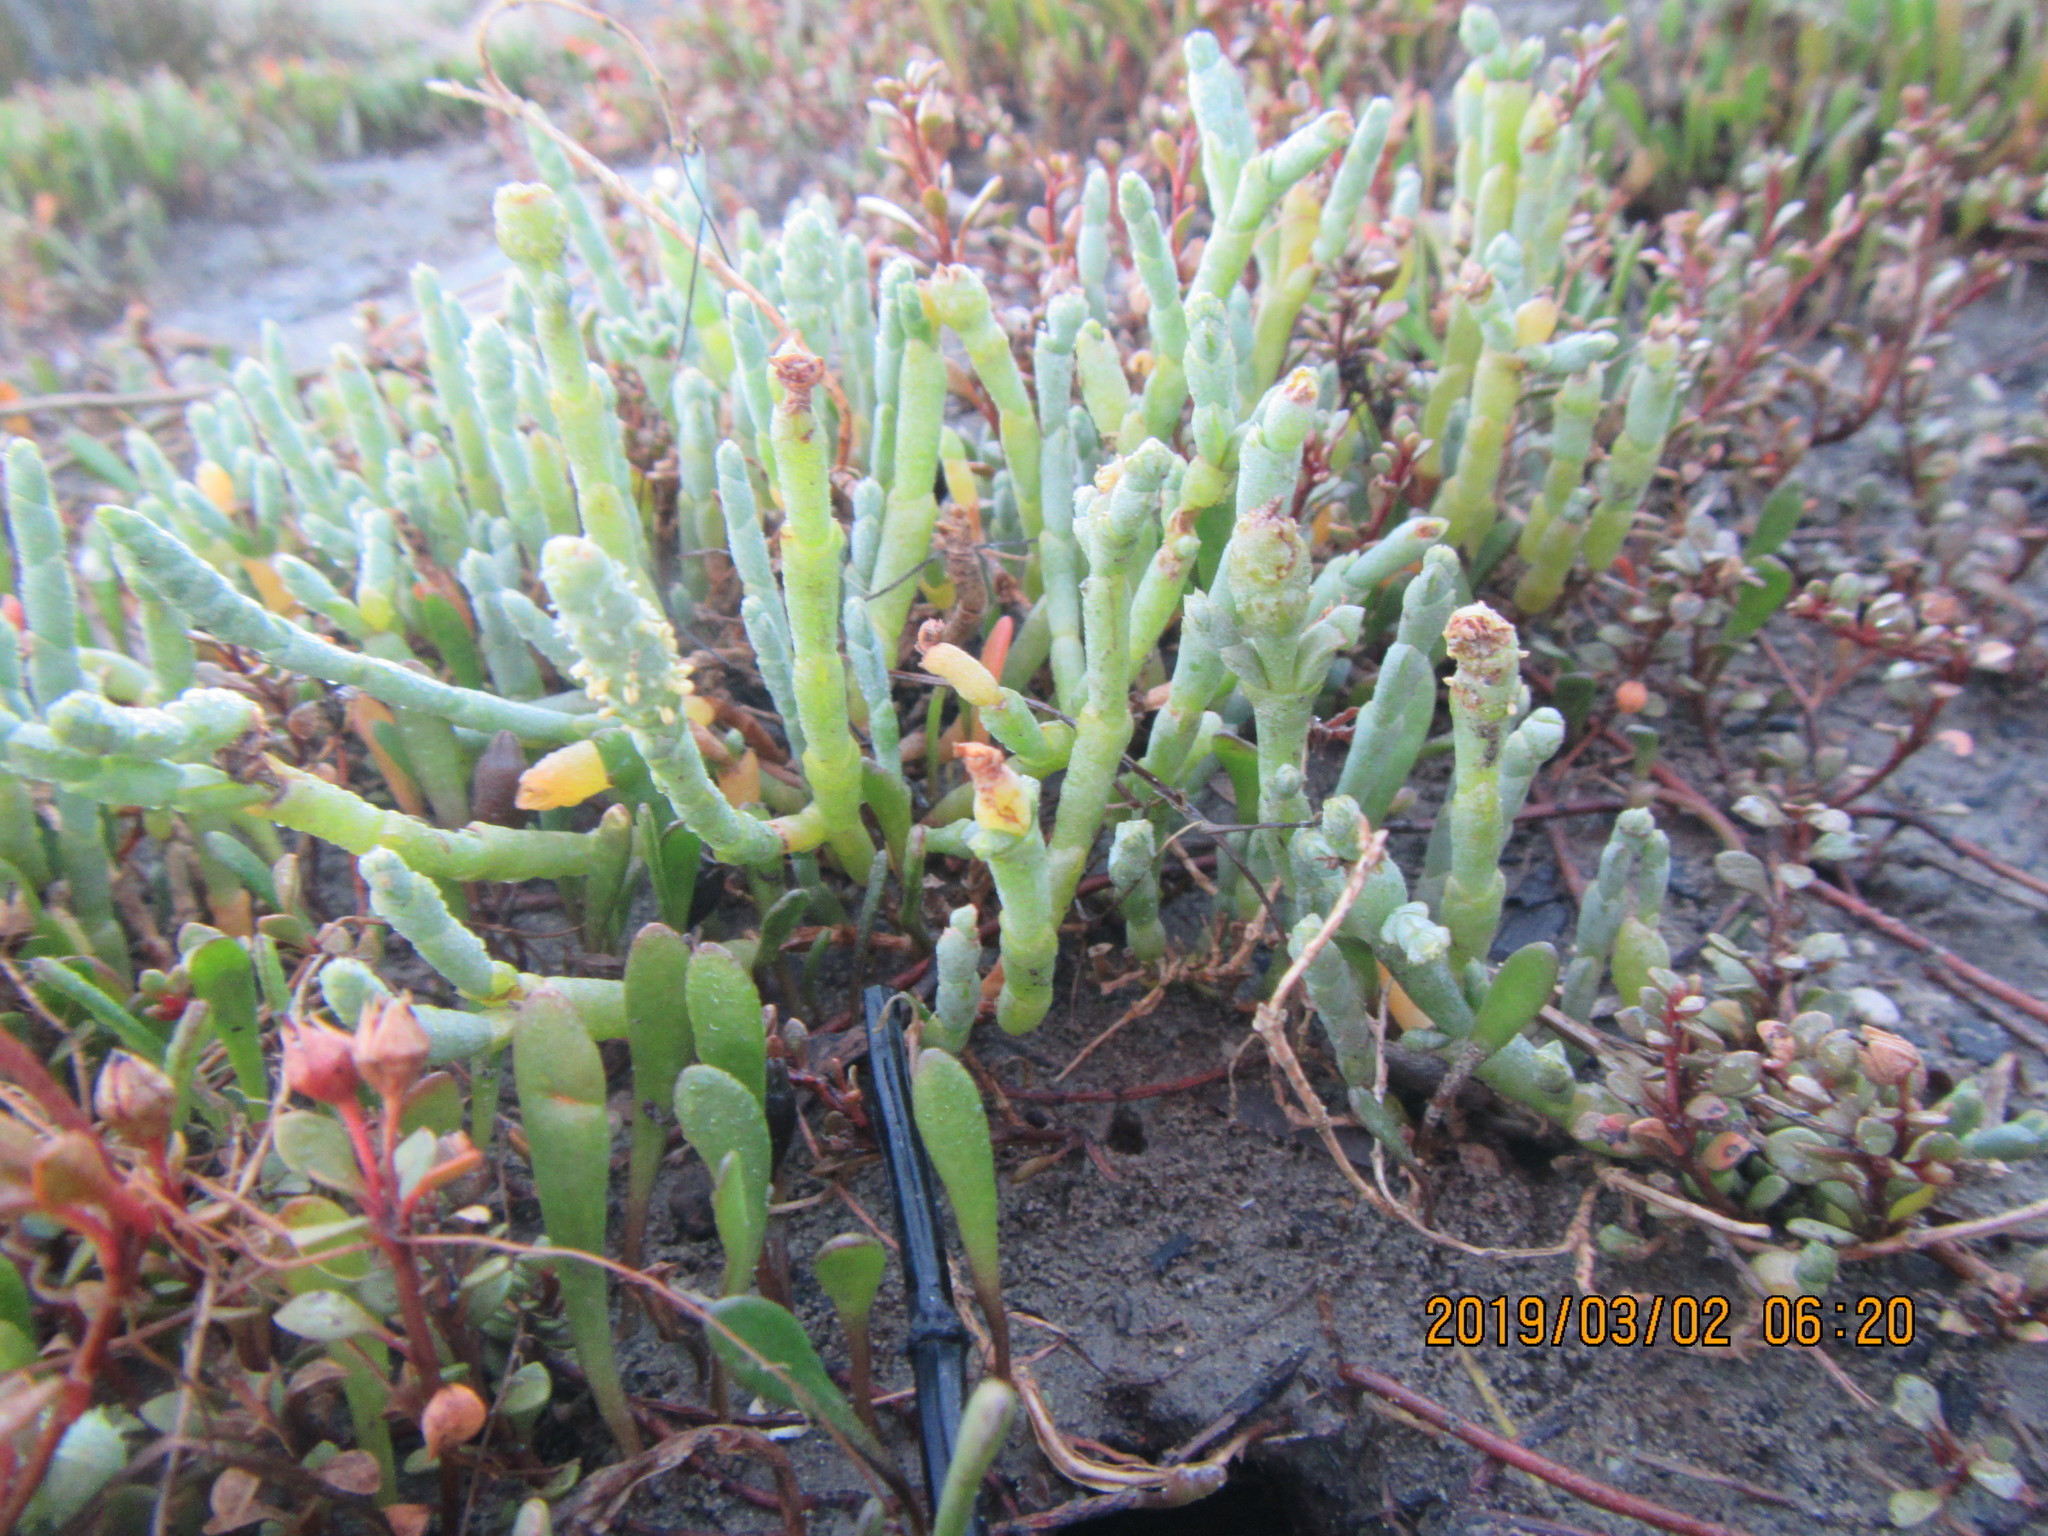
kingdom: Plantae
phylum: Tracheophyta
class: Magnoliopsida
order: Caryophyllales
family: Amaranthaceae
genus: Salicornia
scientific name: Salicornia quinqueflora
